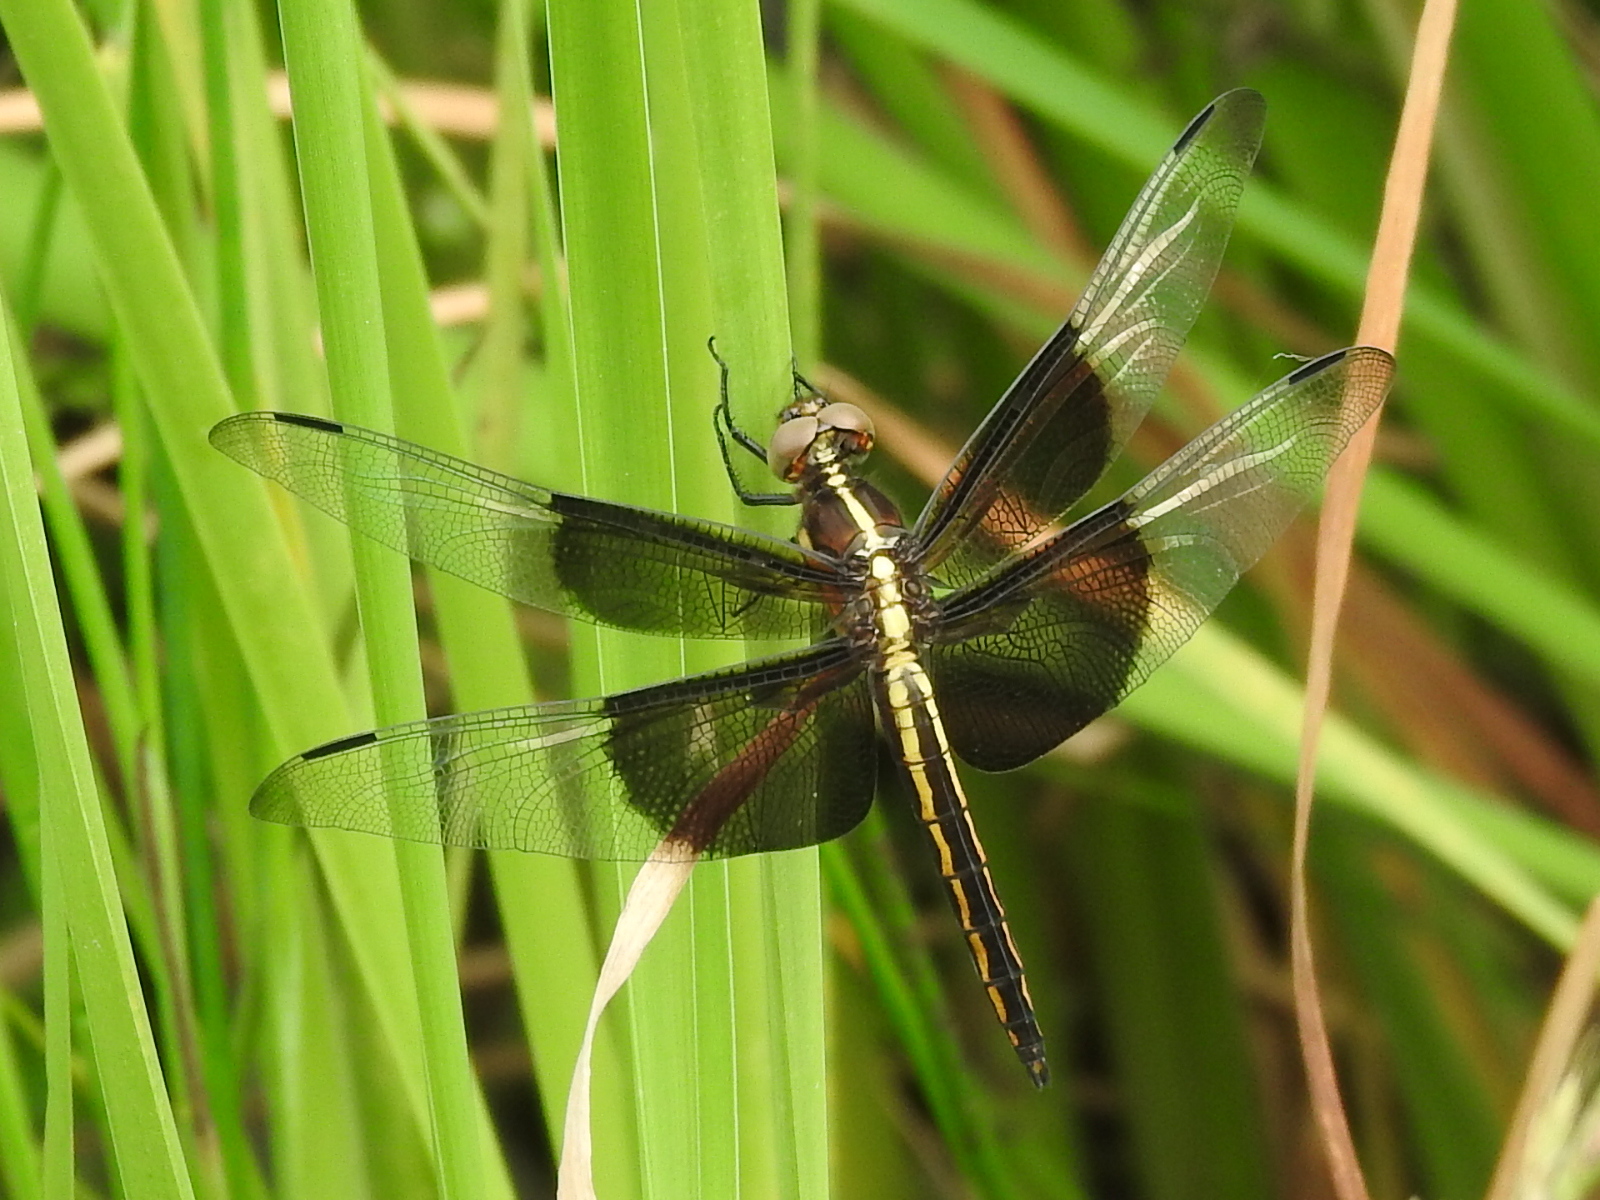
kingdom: Animalia
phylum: Arthropoda
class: Insecta
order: Odonata
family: Libellulidae
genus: Libellula
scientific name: Libellula luctuosa
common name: Widow skimmer
